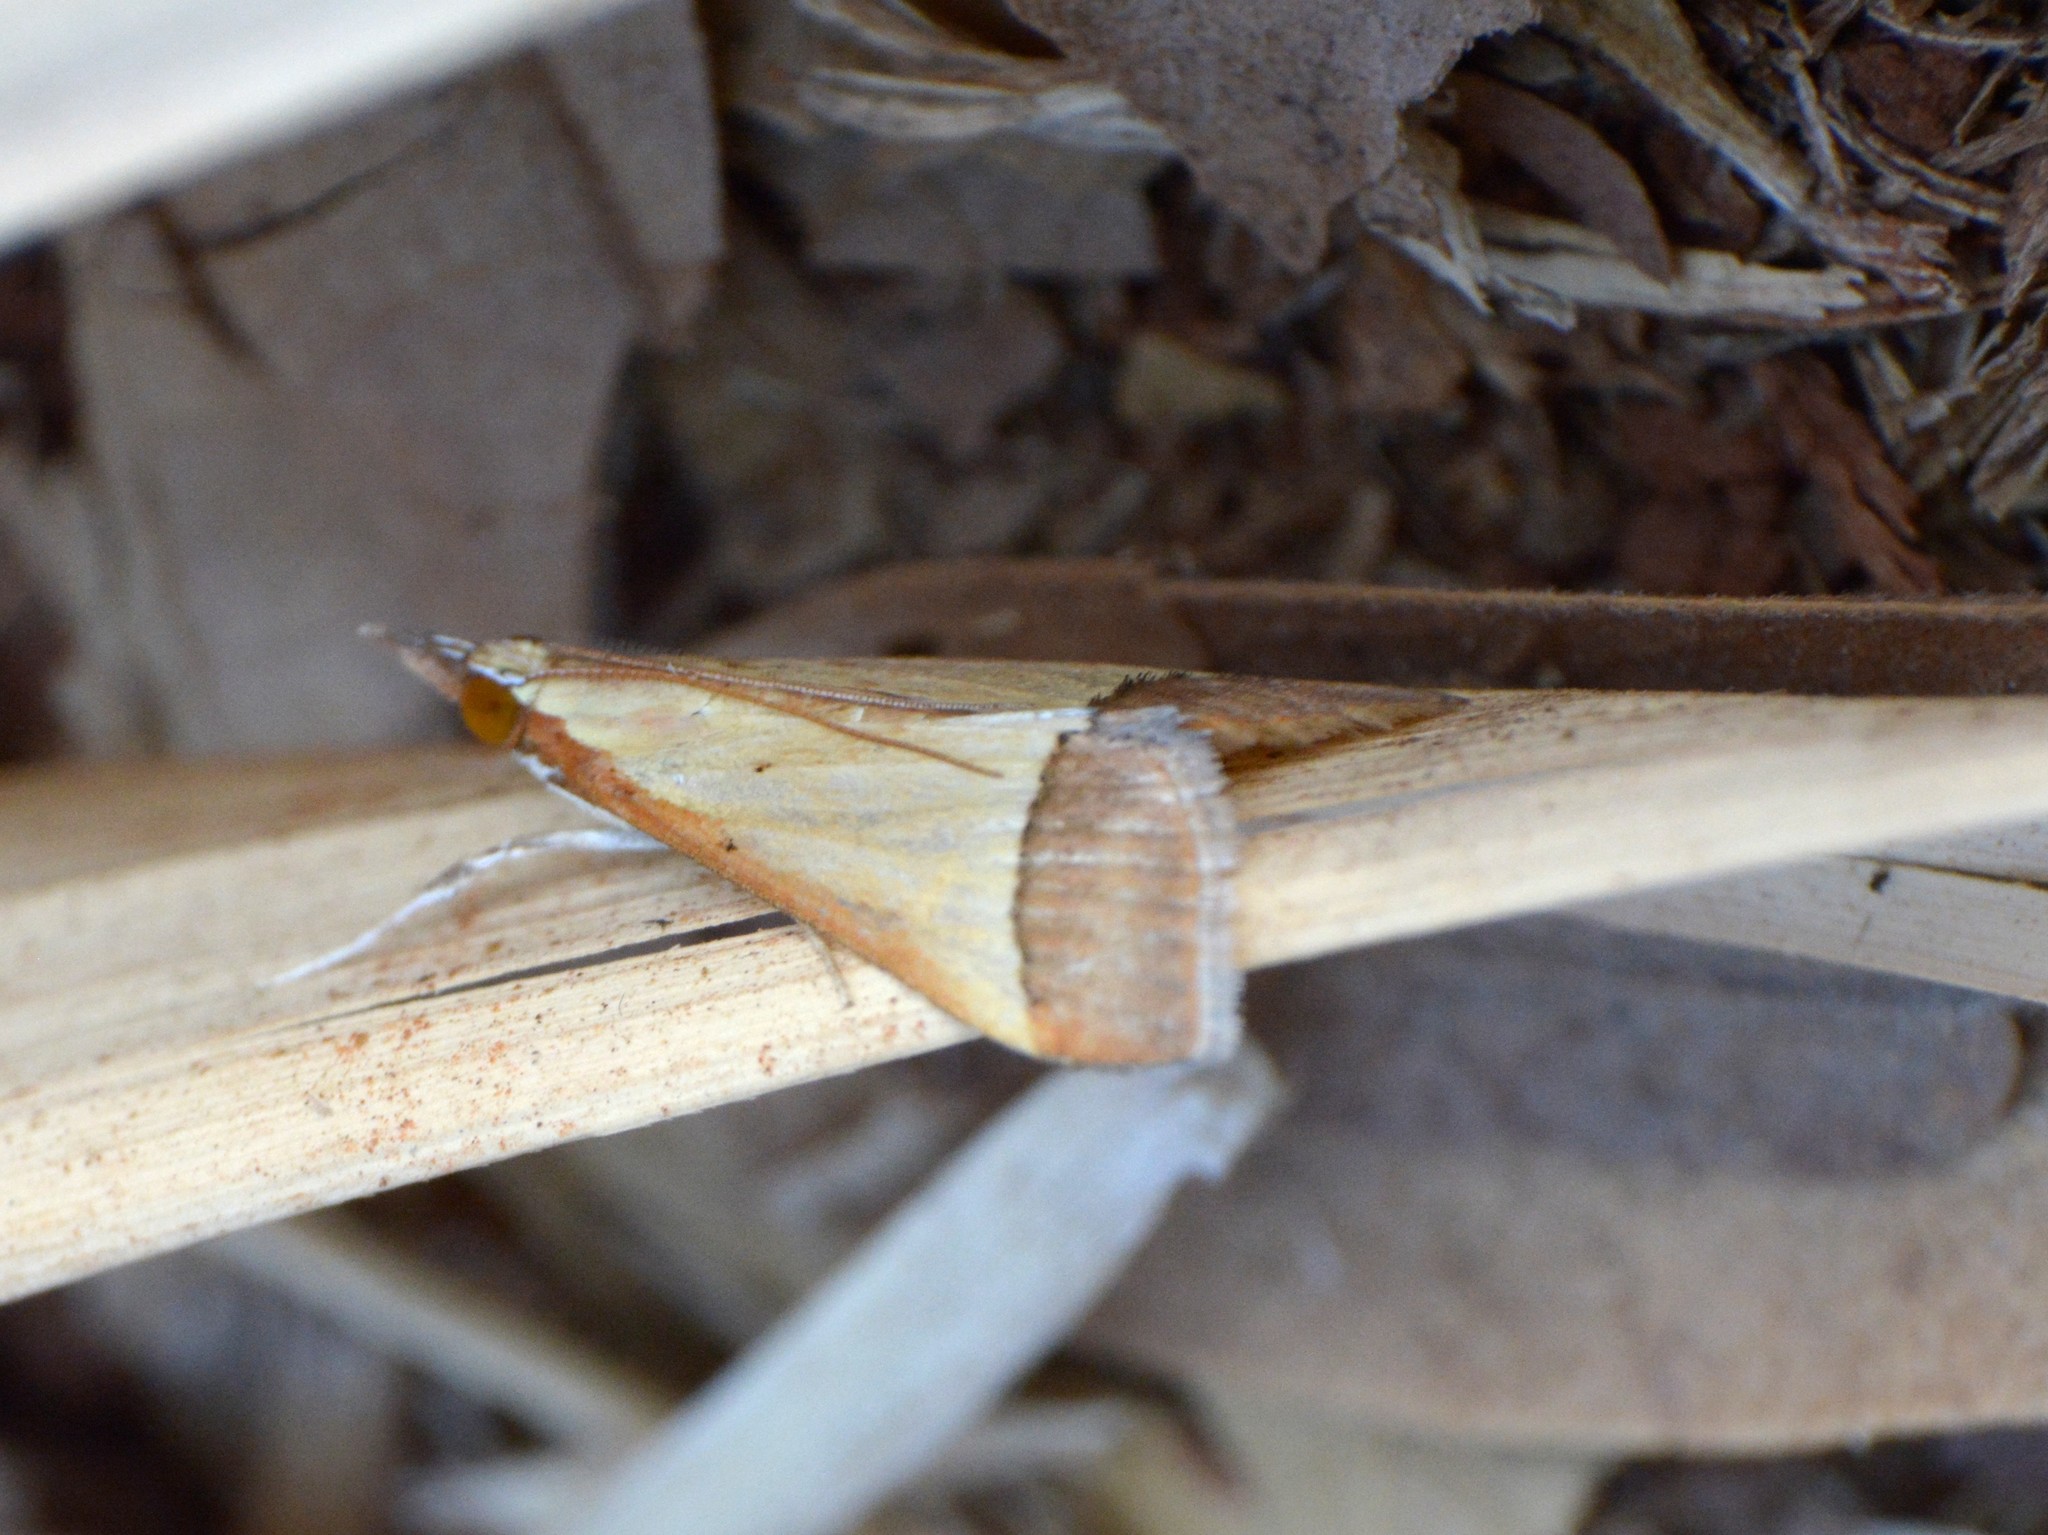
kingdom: Animalia
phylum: Arthropoda
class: Insecta
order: Lepidoptera
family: Crambidae
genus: Autocharis
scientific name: Autocharis rubricostalis
